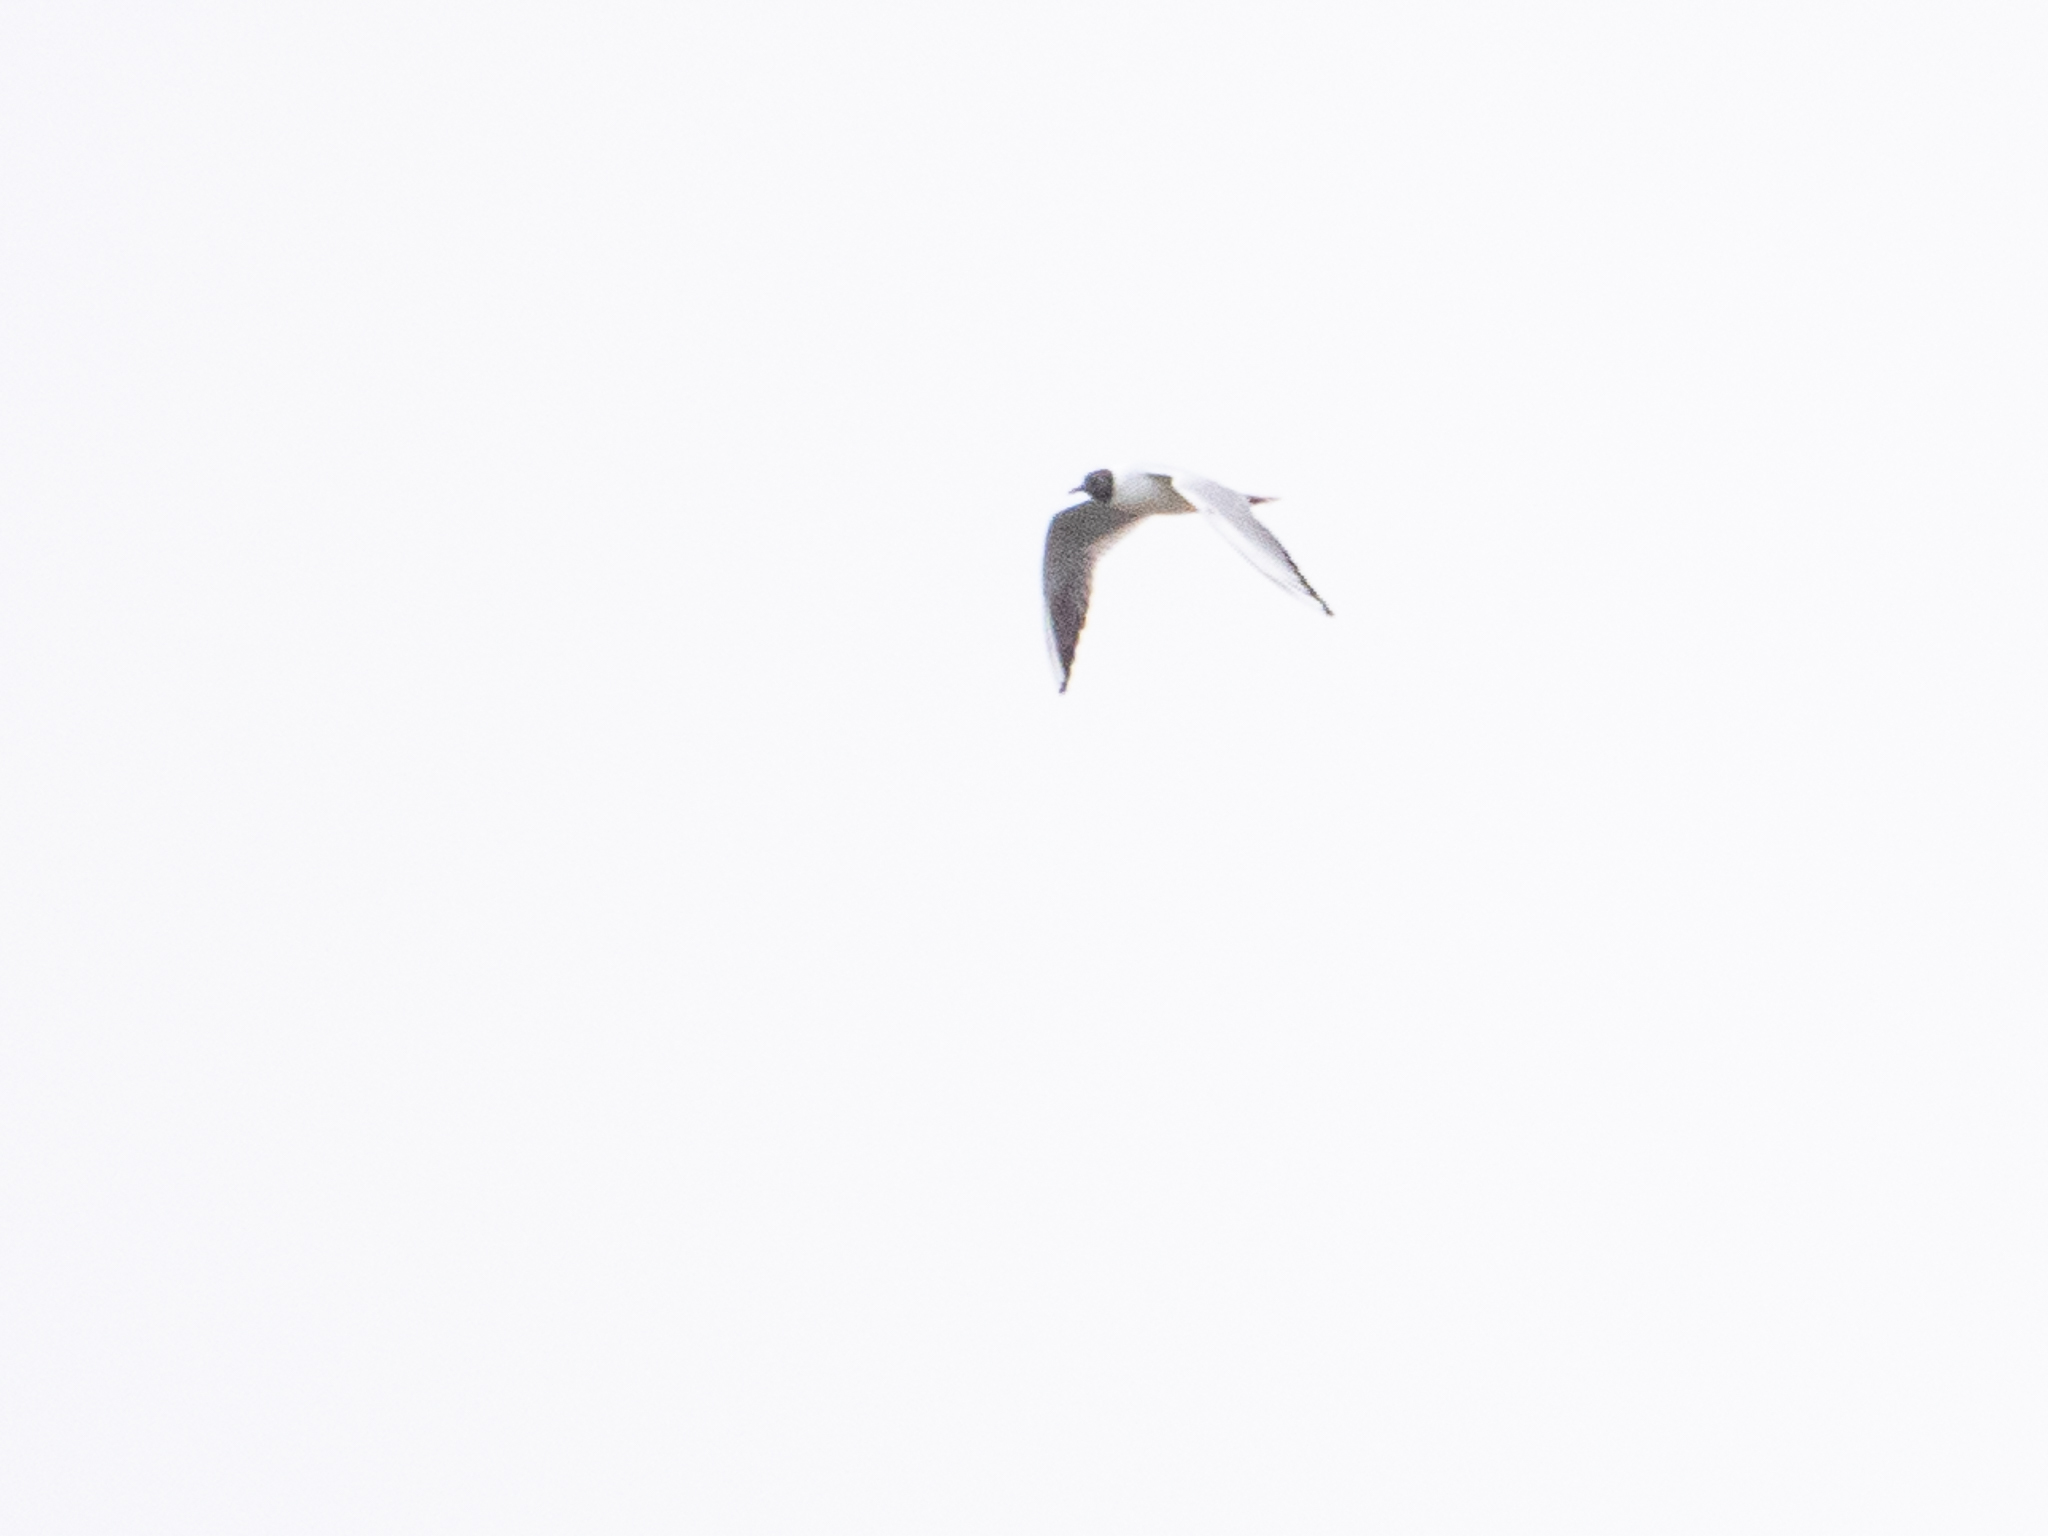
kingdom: Animalia
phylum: Chordata
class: Aves
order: Charadriiformes
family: Laridae
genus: Chroicocephalus
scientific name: Chroicocephalus ridibundus
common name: Black-headed gull
